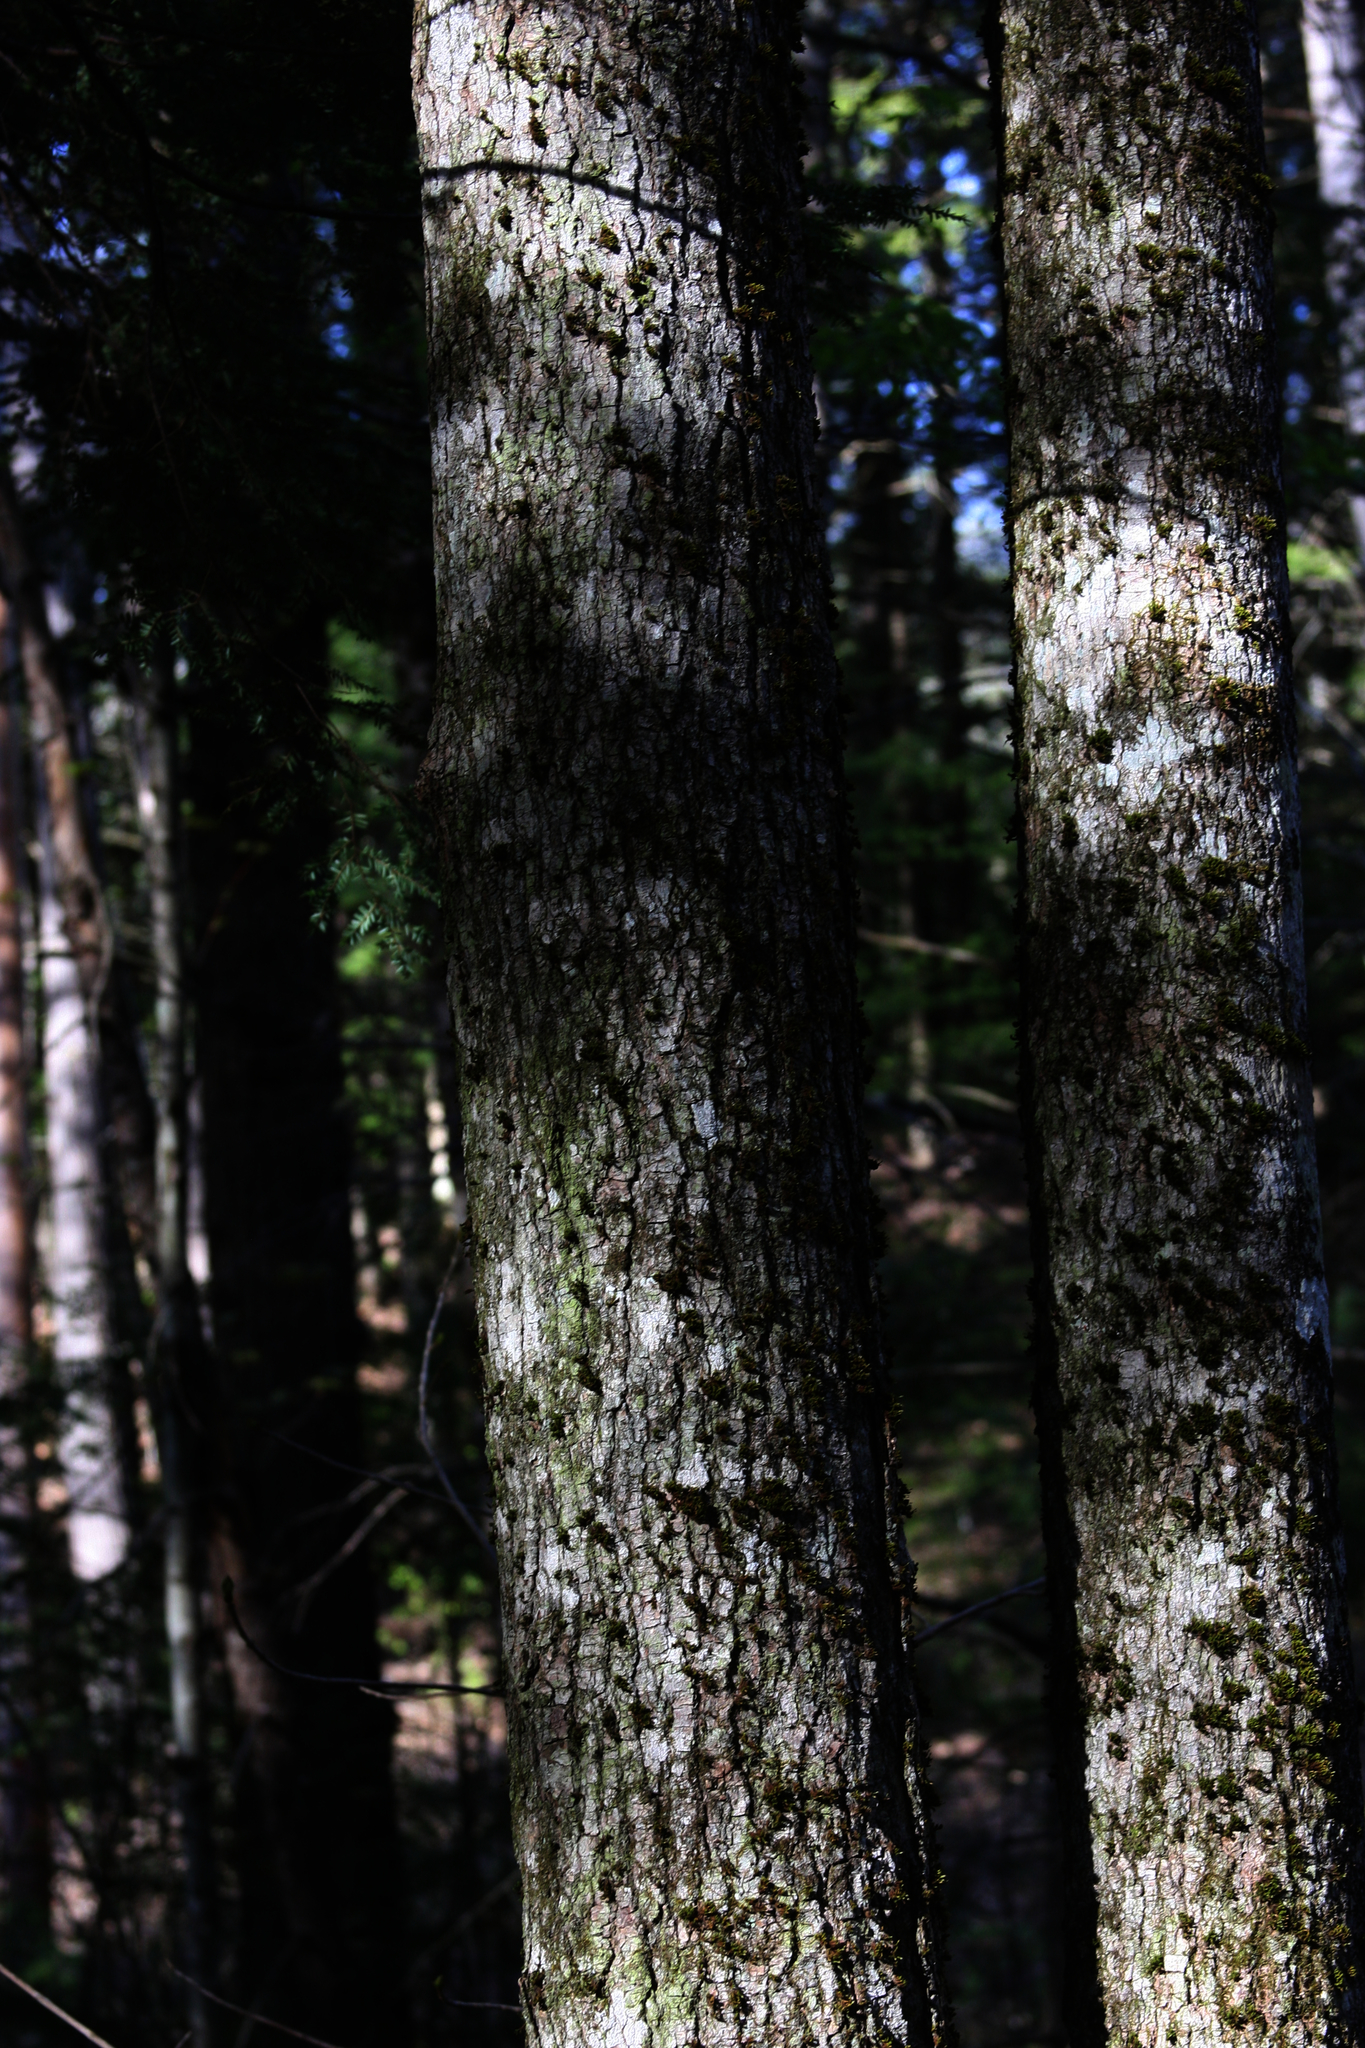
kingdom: Plantae
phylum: Bryophyta
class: Bryopsida
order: Orthotrichales
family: Orthotrichaceae
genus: Ulota
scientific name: Ulota crispa
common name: Crisped pincushion moss
